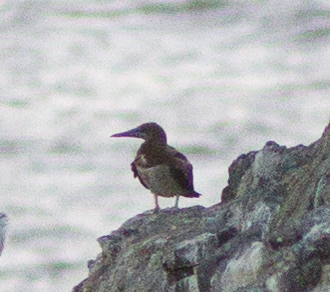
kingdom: Animalia
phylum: Chordata
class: Aves
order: Suliformes
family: Sulidae
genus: Sula
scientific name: Sula leucogaster
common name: Brown booby
